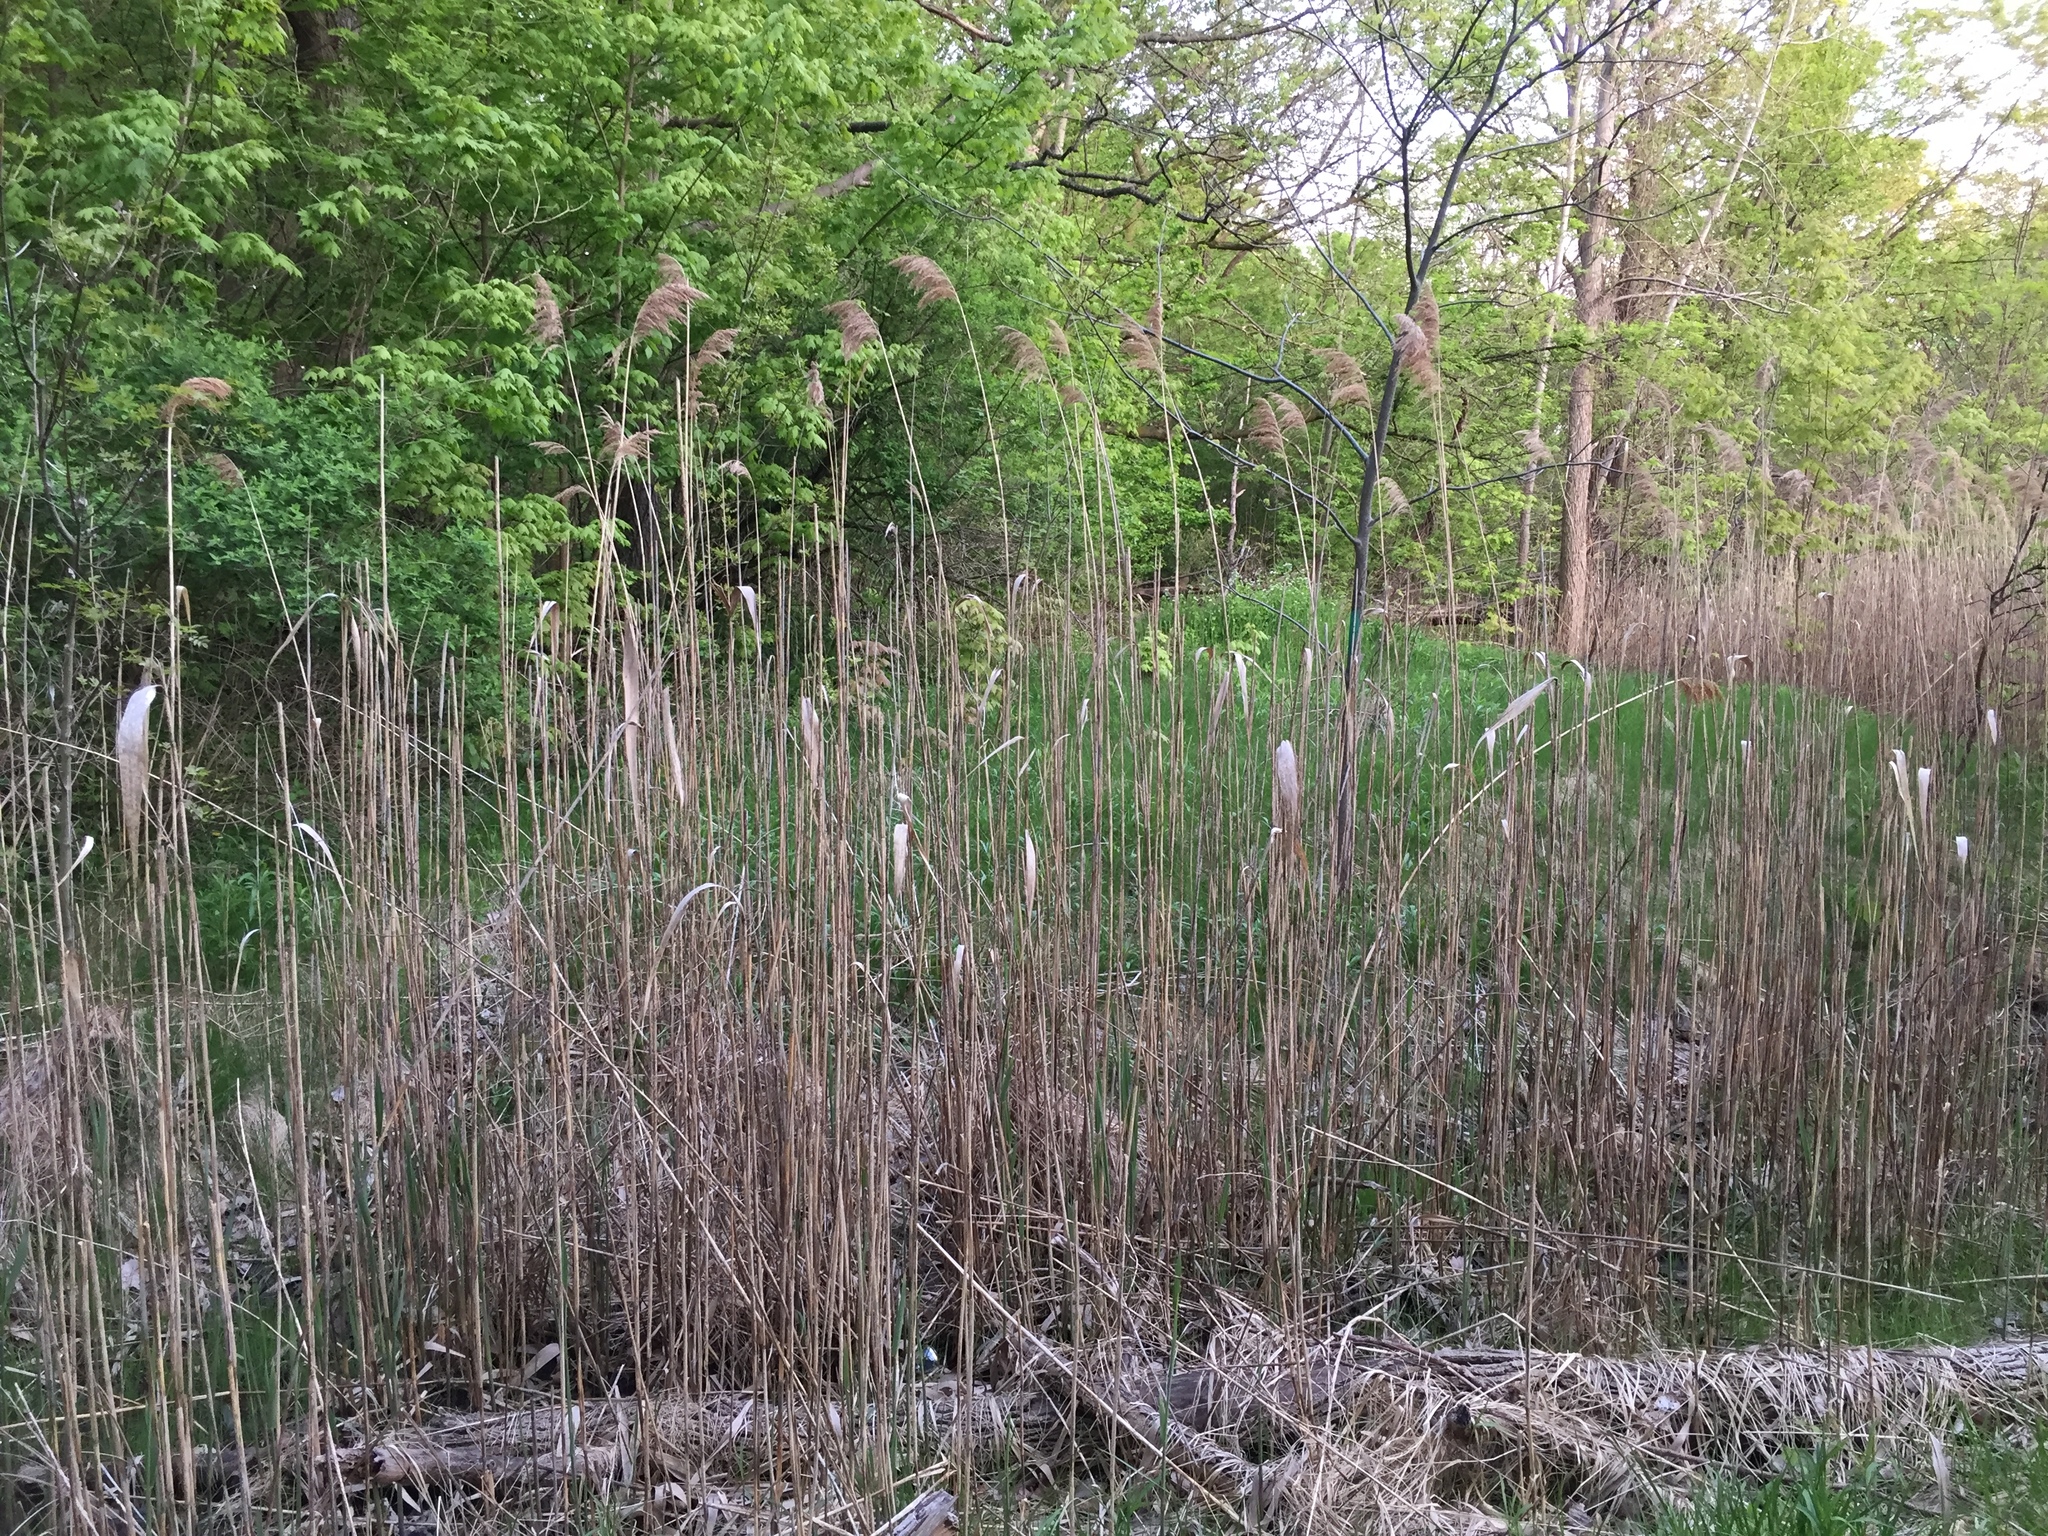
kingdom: Plantae
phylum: Tracheophyta
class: Liliopsida
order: Poales
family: Poaceae
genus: Phragmites
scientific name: Phragmites australis
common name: Common reed
